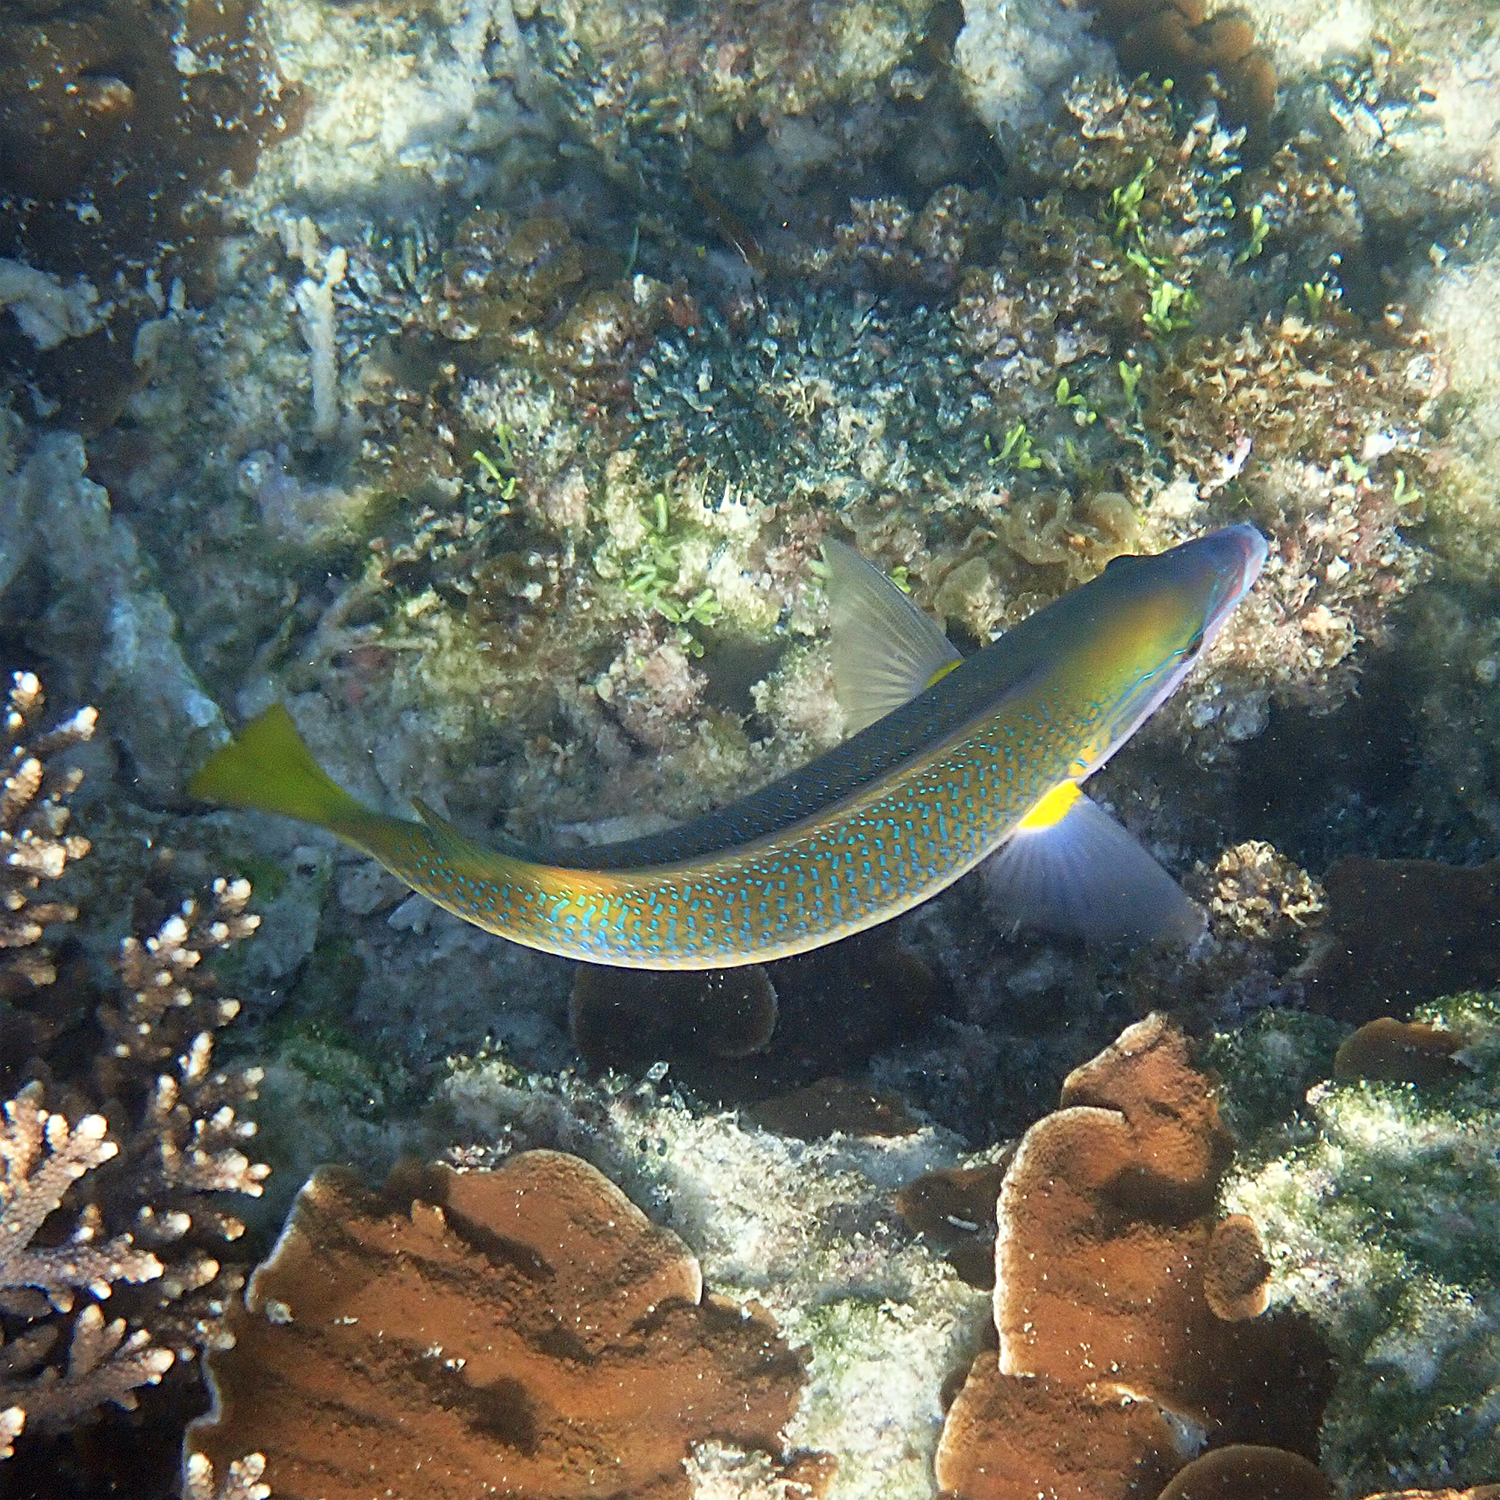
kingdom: Animalia
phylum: Chordata
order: Perciformes
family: Labridae
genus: Anampses
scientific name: Anampses elegans
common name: Elegant wrasse
